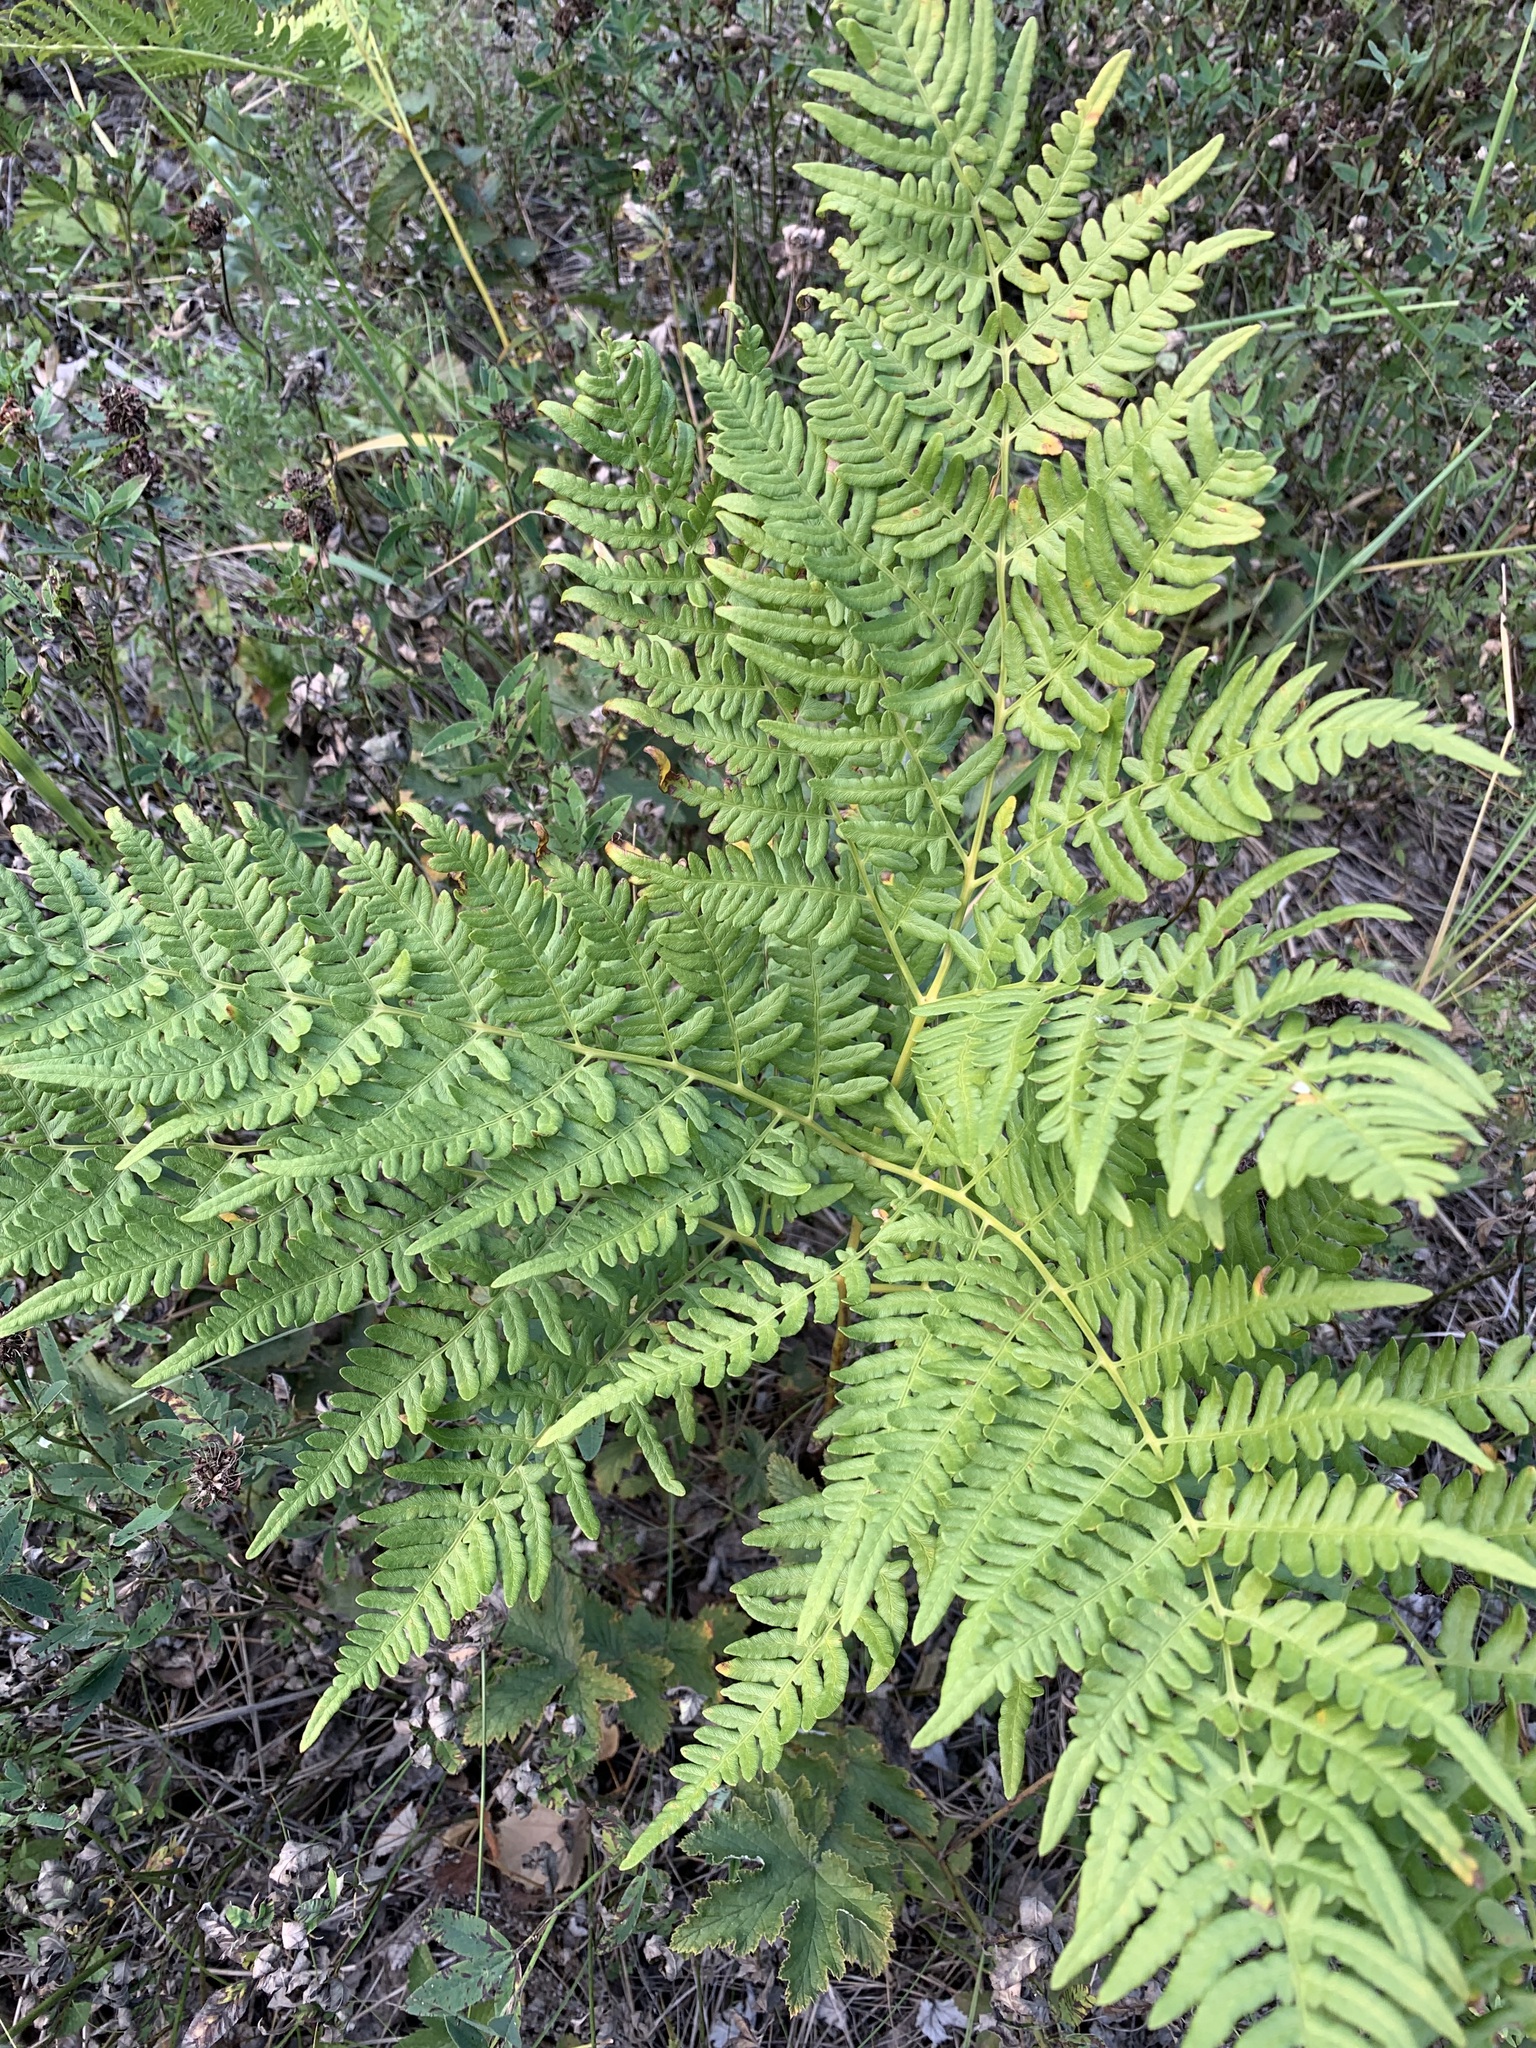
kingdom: Plantae
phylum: Tracheophyta
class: Polypodiopsida
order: Polypodiales
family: Dennstaedtiaceae
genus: Pteridium
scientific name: Pteridium aquilinum
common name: Bracken
